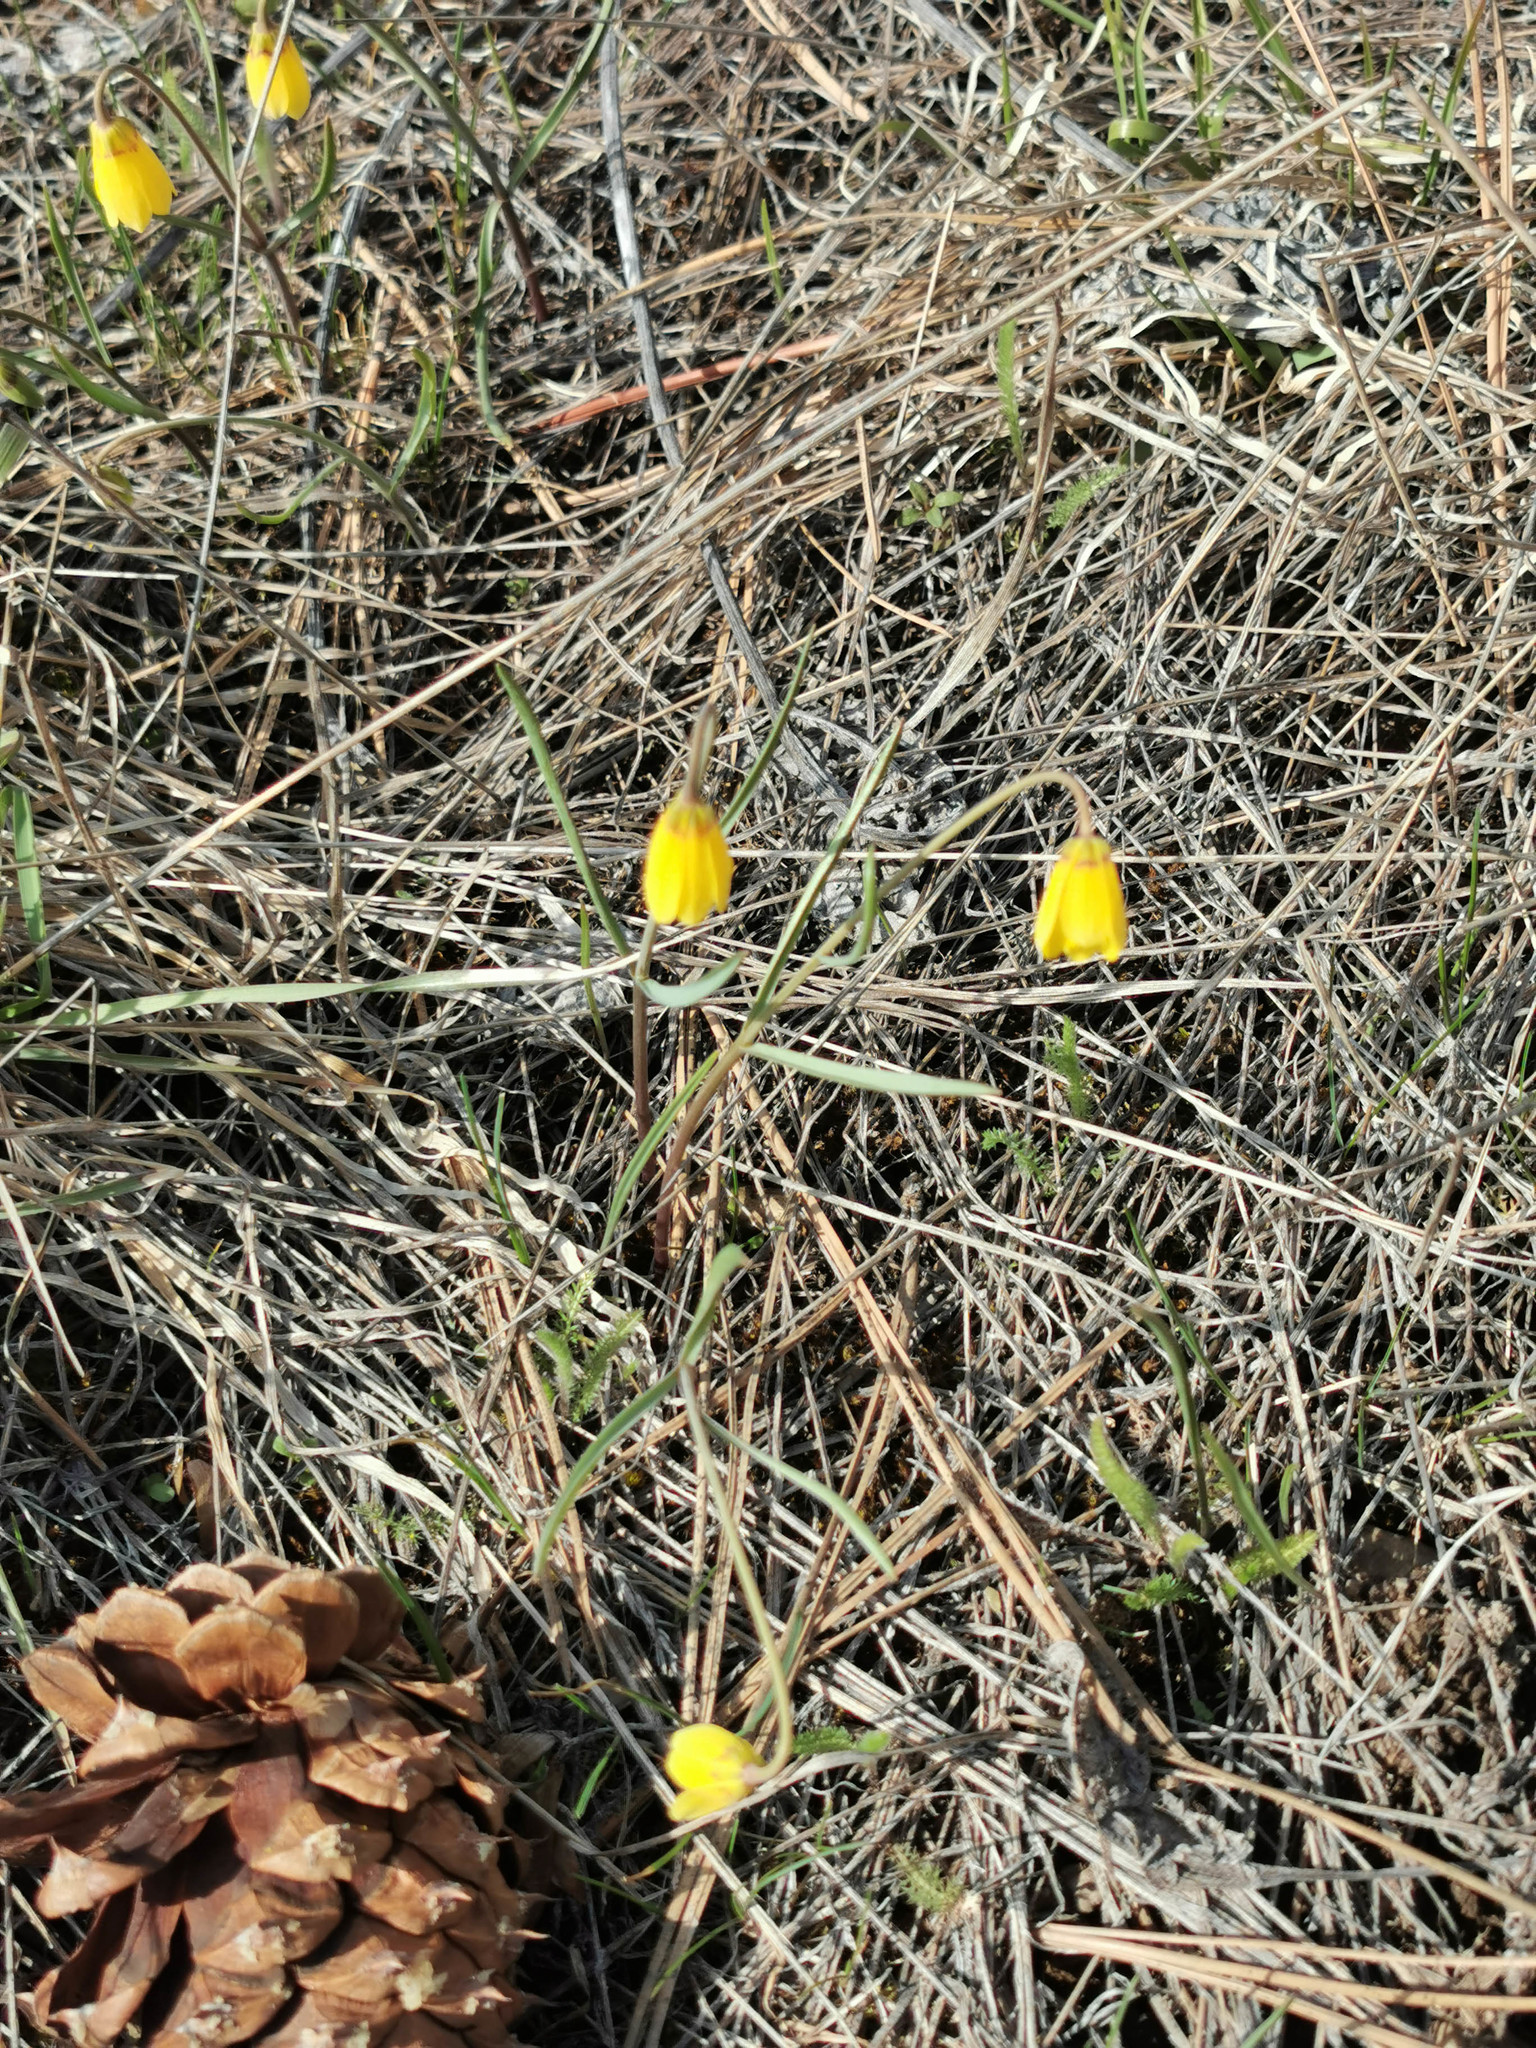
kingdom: Plantae
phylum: Tracheophyta
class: Liliopsida
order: Liliales
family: Liliaceae
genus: Fritillaria
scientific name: Fritillaria pudica
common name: Yellow fritillary
